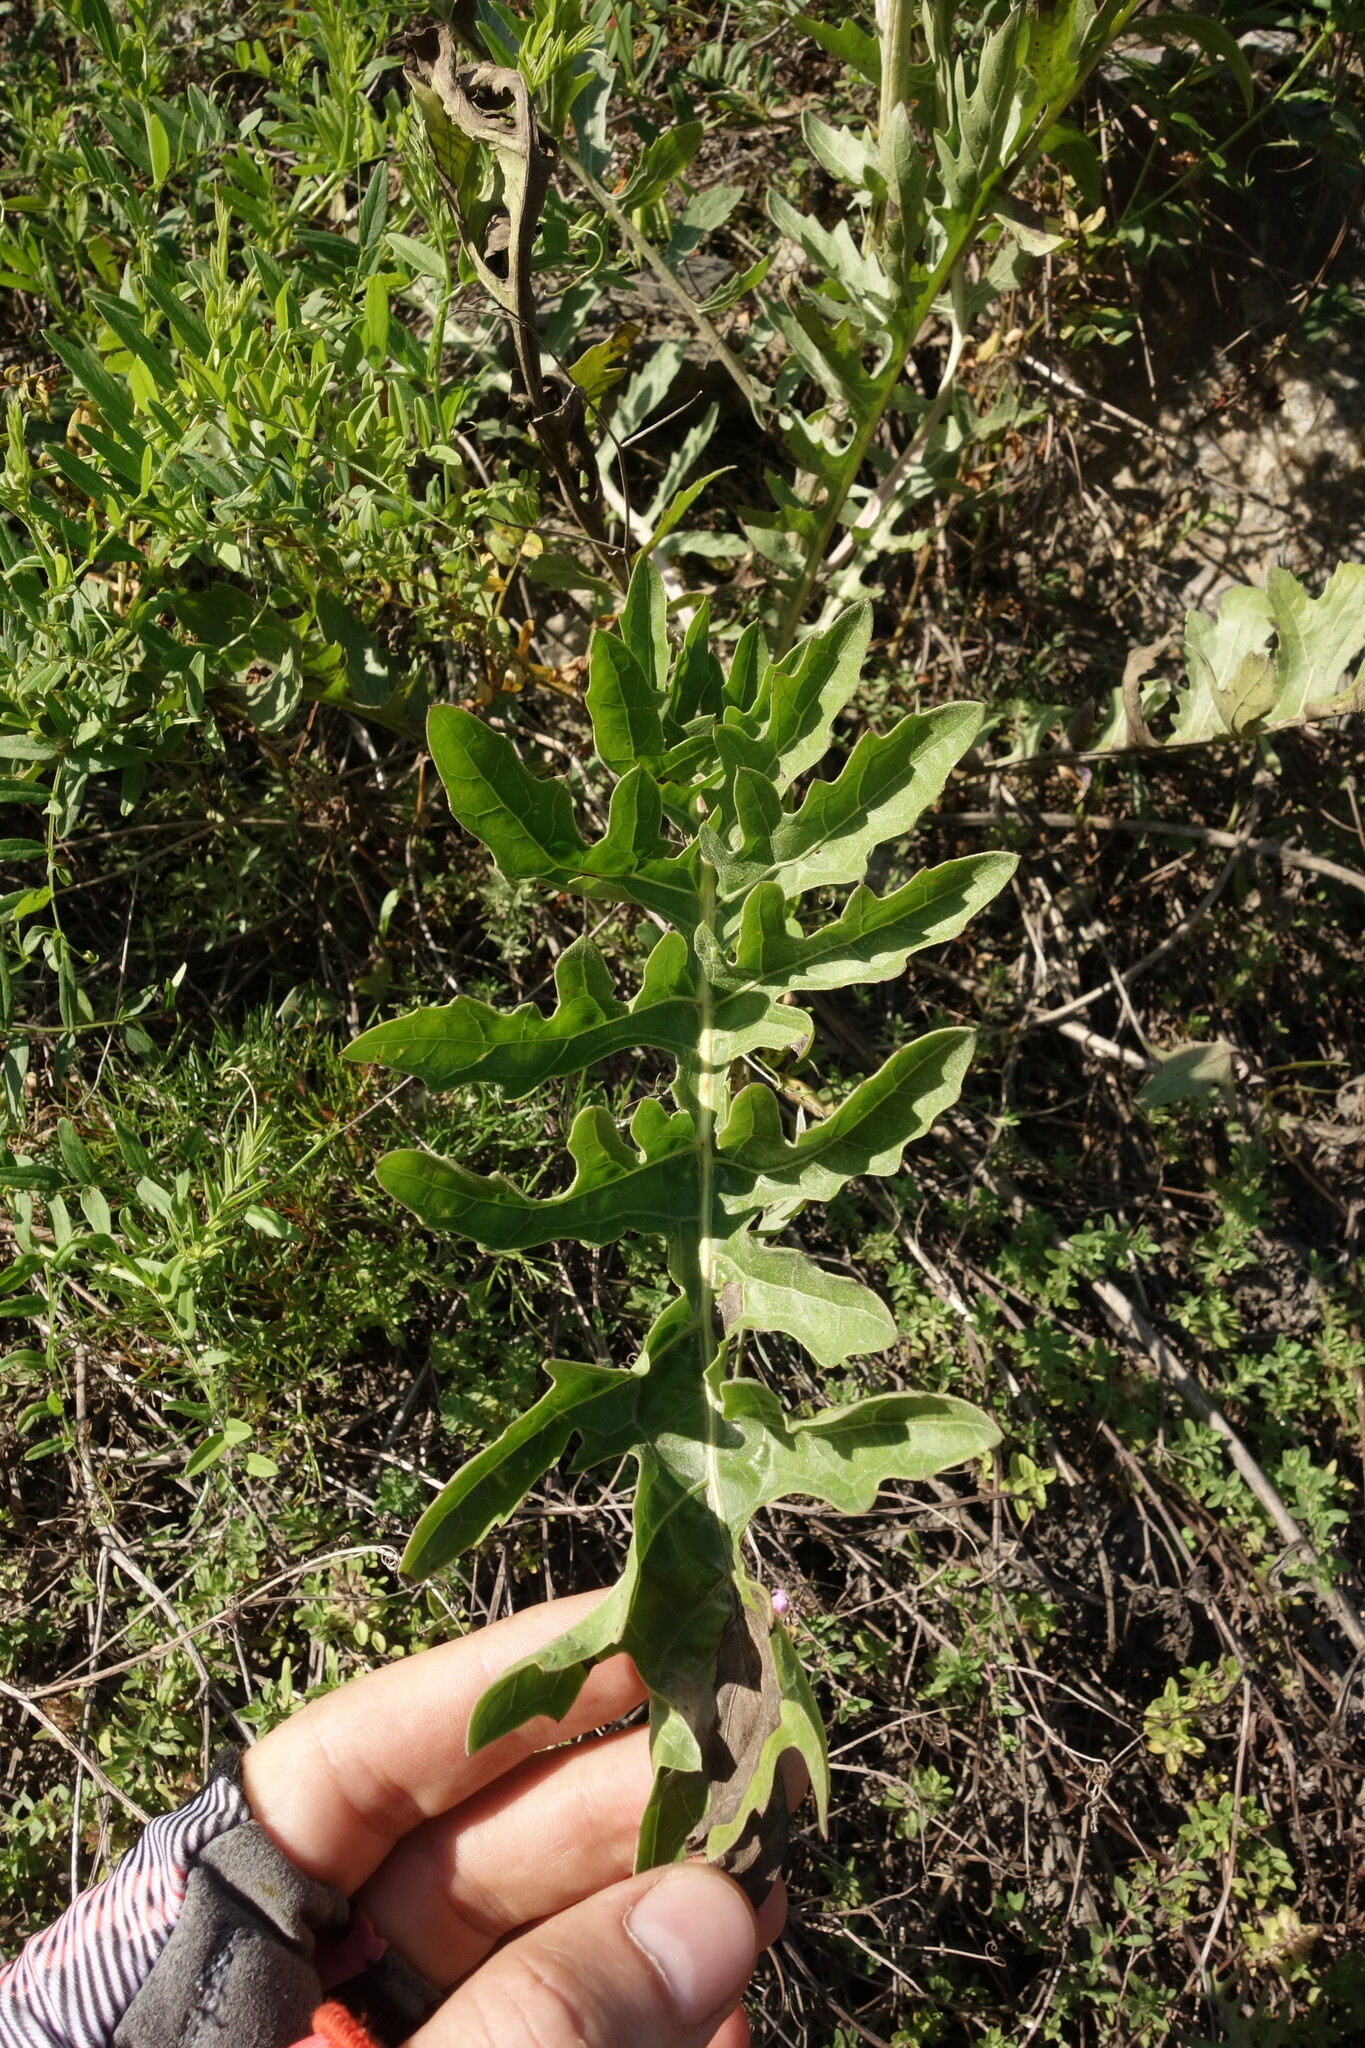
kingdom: Plantae
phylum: Tracheophyta
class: Magnoliopsida
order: Asterales
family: Asteraceae
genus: Leuzea
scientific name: Leuzea uniflora
